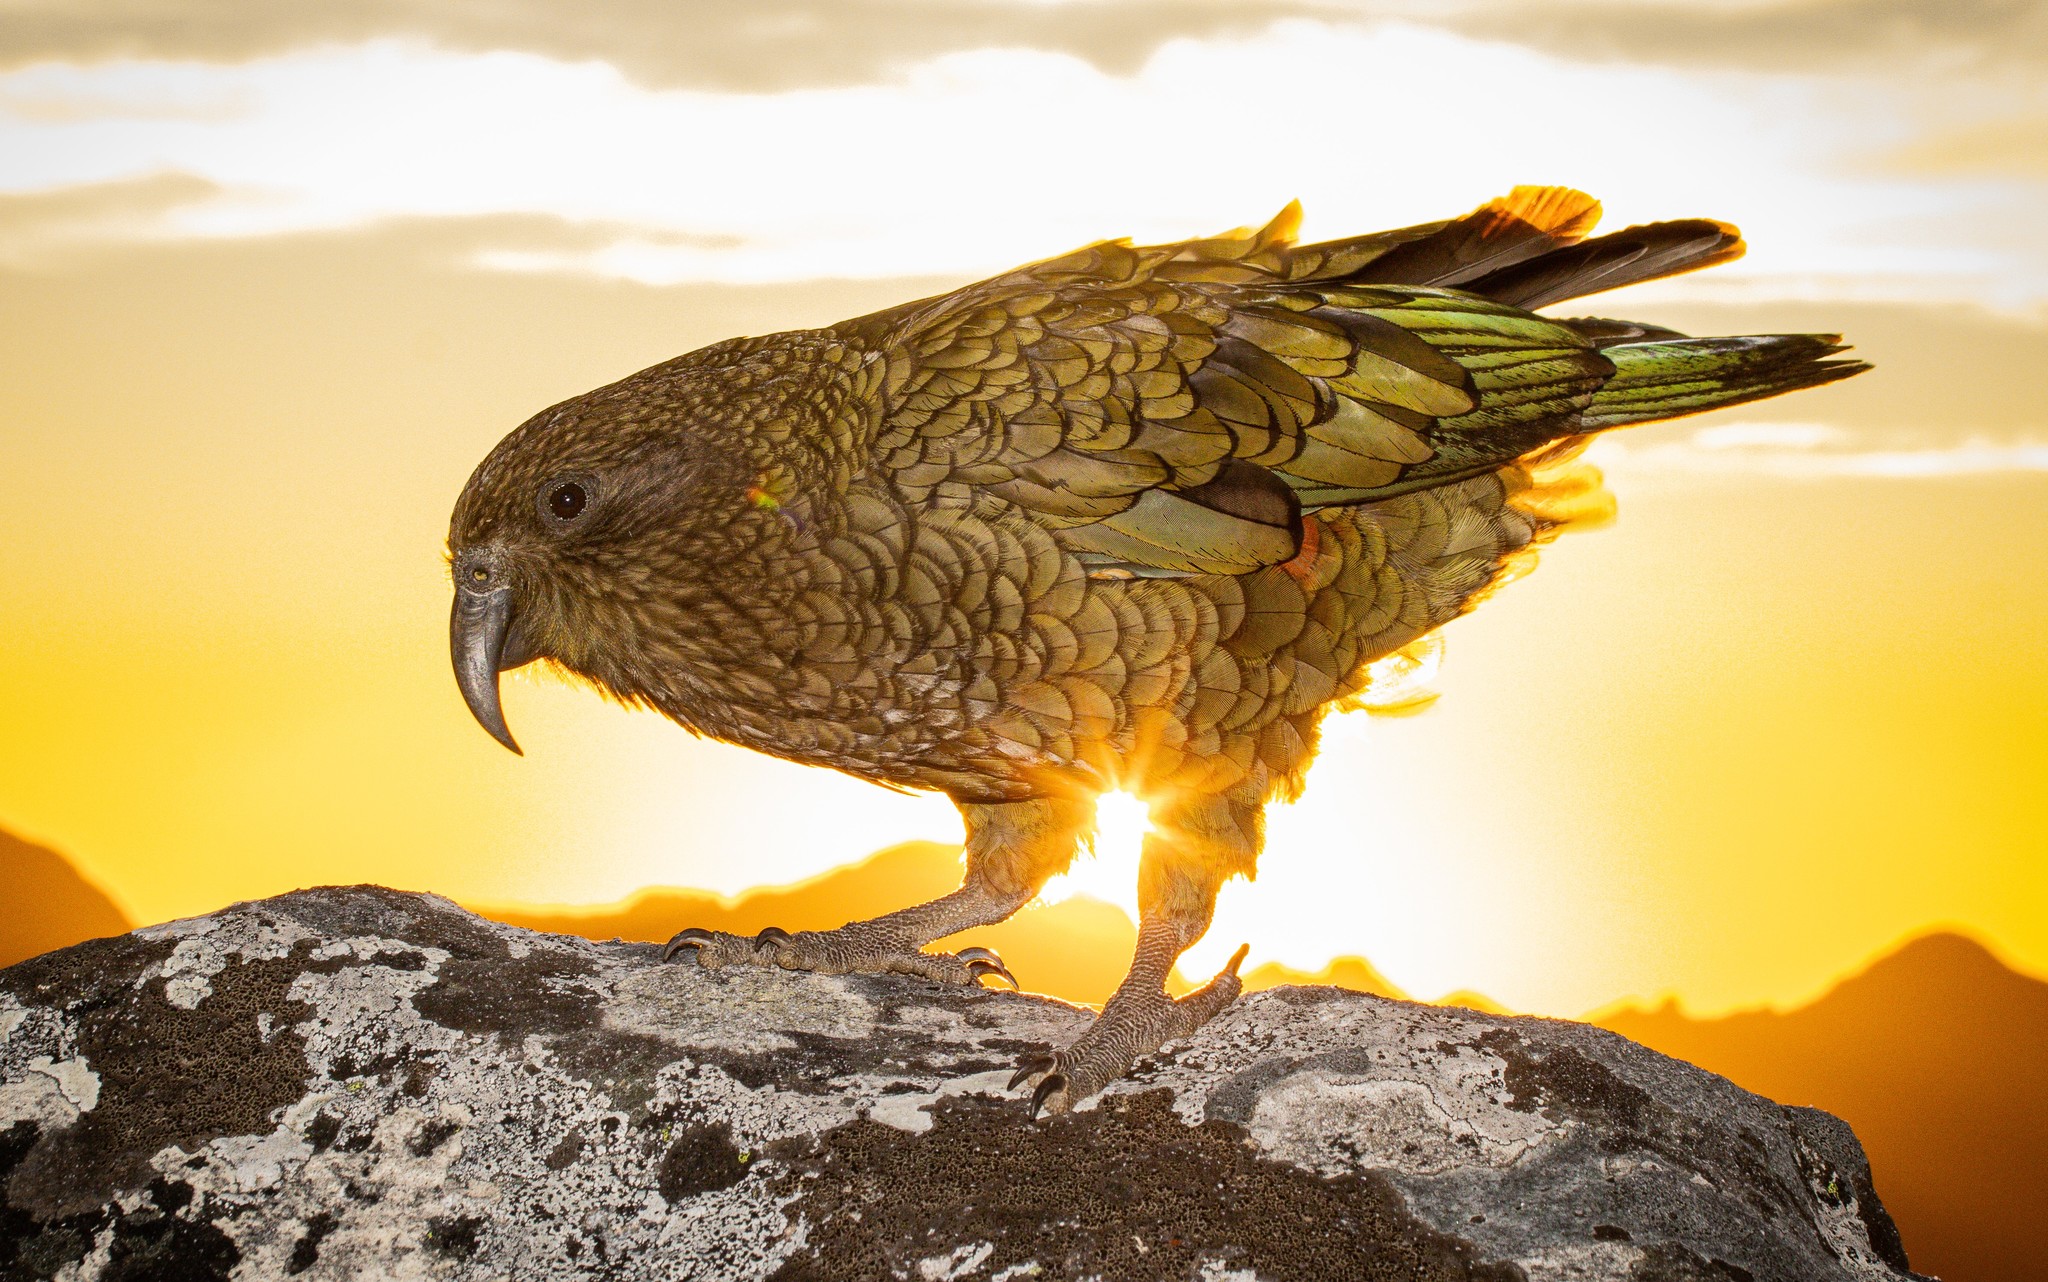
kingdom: Animalia
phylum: Chordata
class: Aves
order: Psittaciformes
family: Psittacidae
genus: Nestor
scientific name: Nestor notabilis
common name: Kea
